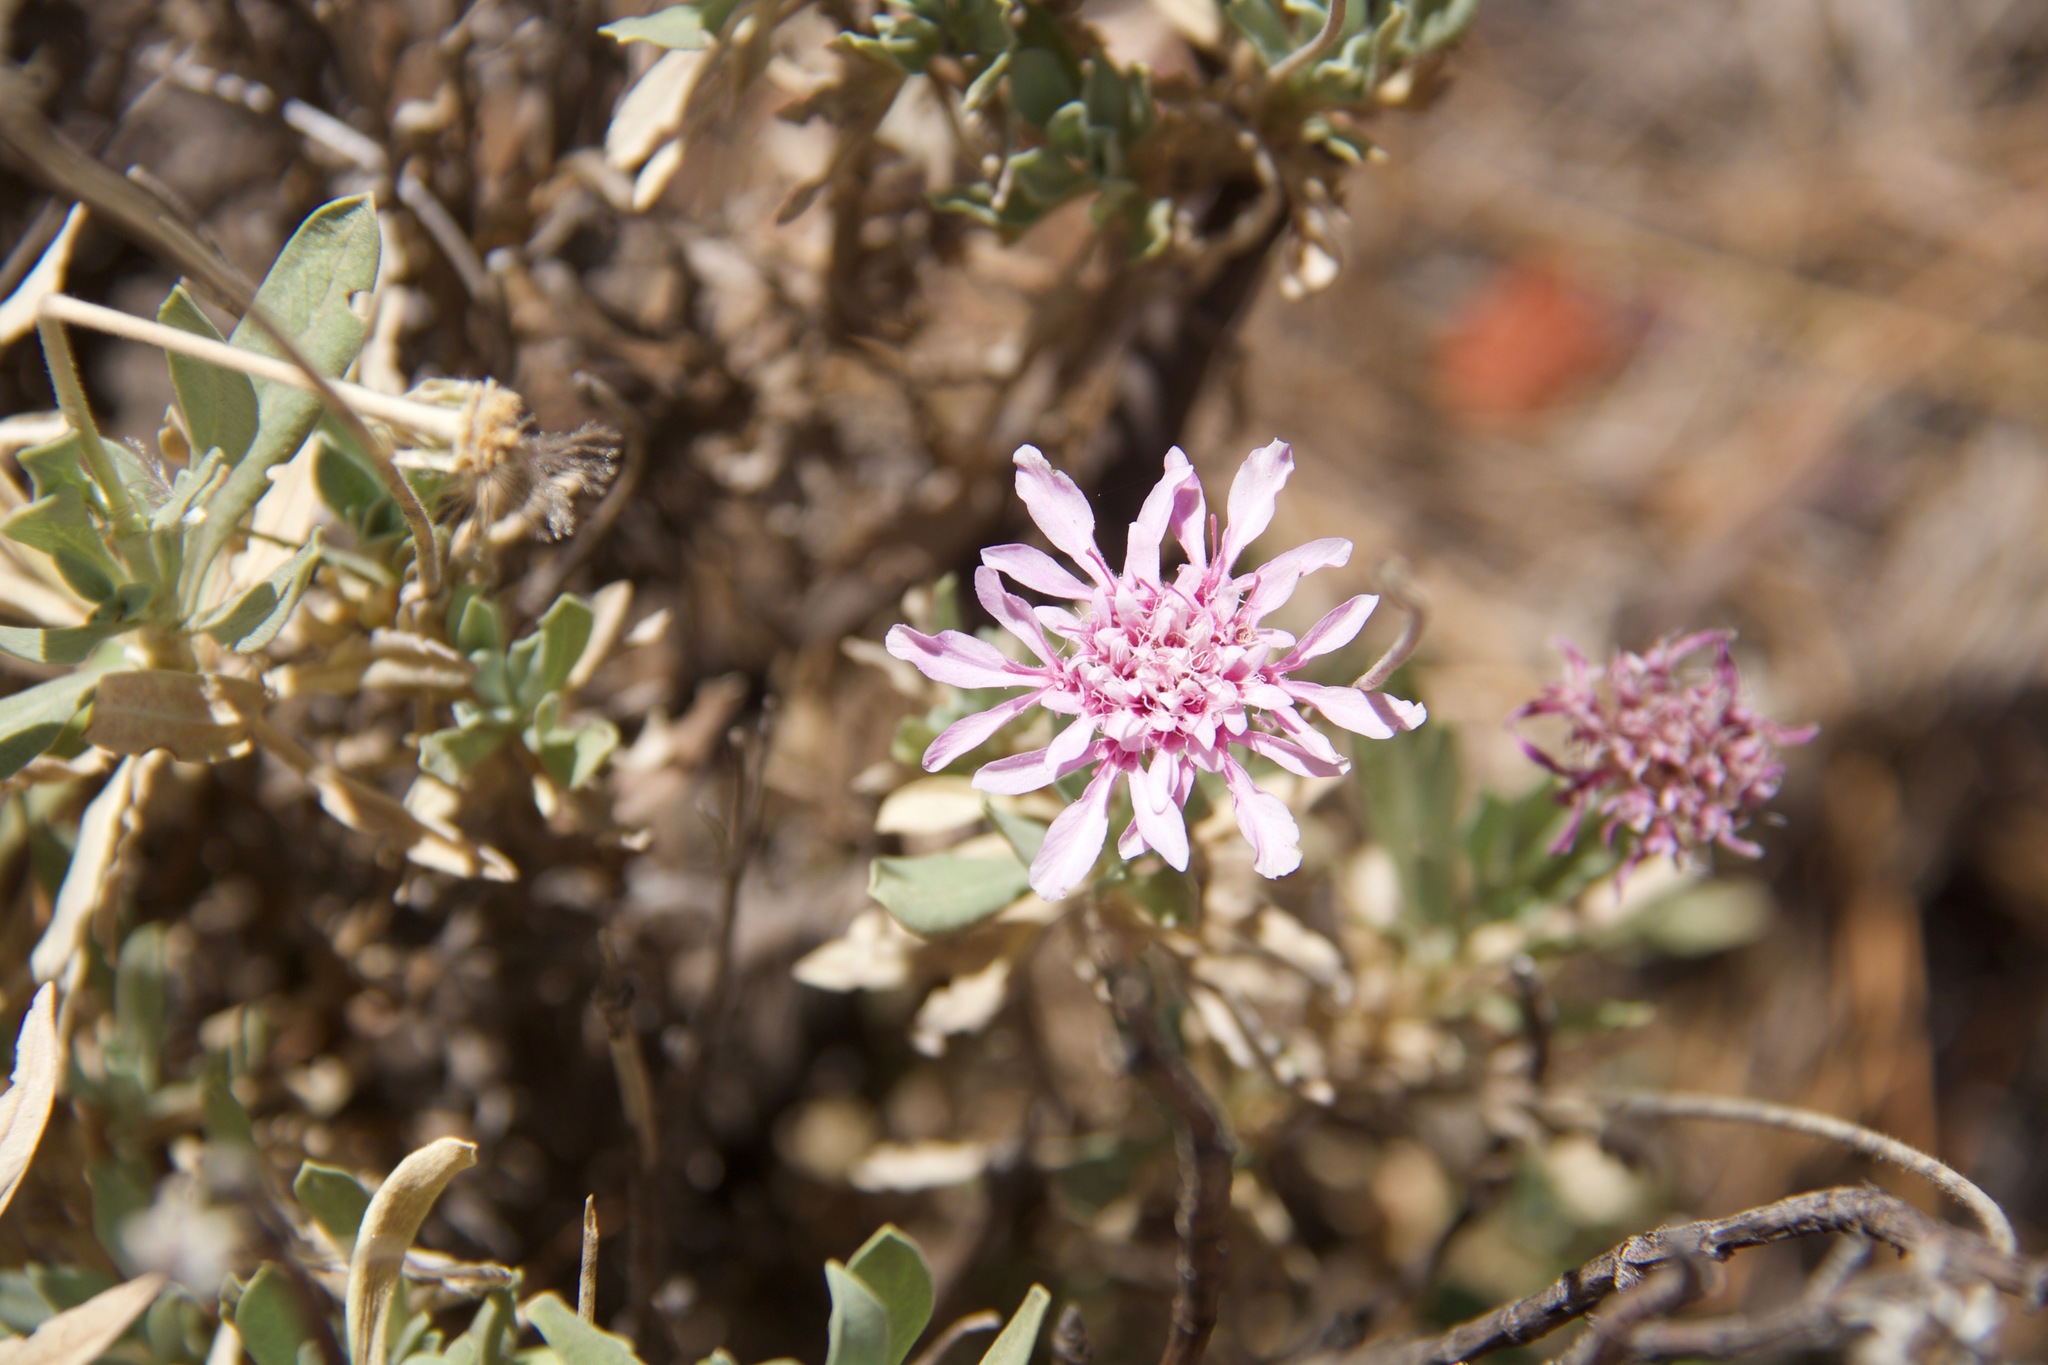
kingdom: Plantae
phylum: Tracheophyta
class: Magnoliopsida
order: Dipsacales
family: Caprifoliaceae
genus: Pterocephalus
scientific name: Pterocephalus lasiospermus
